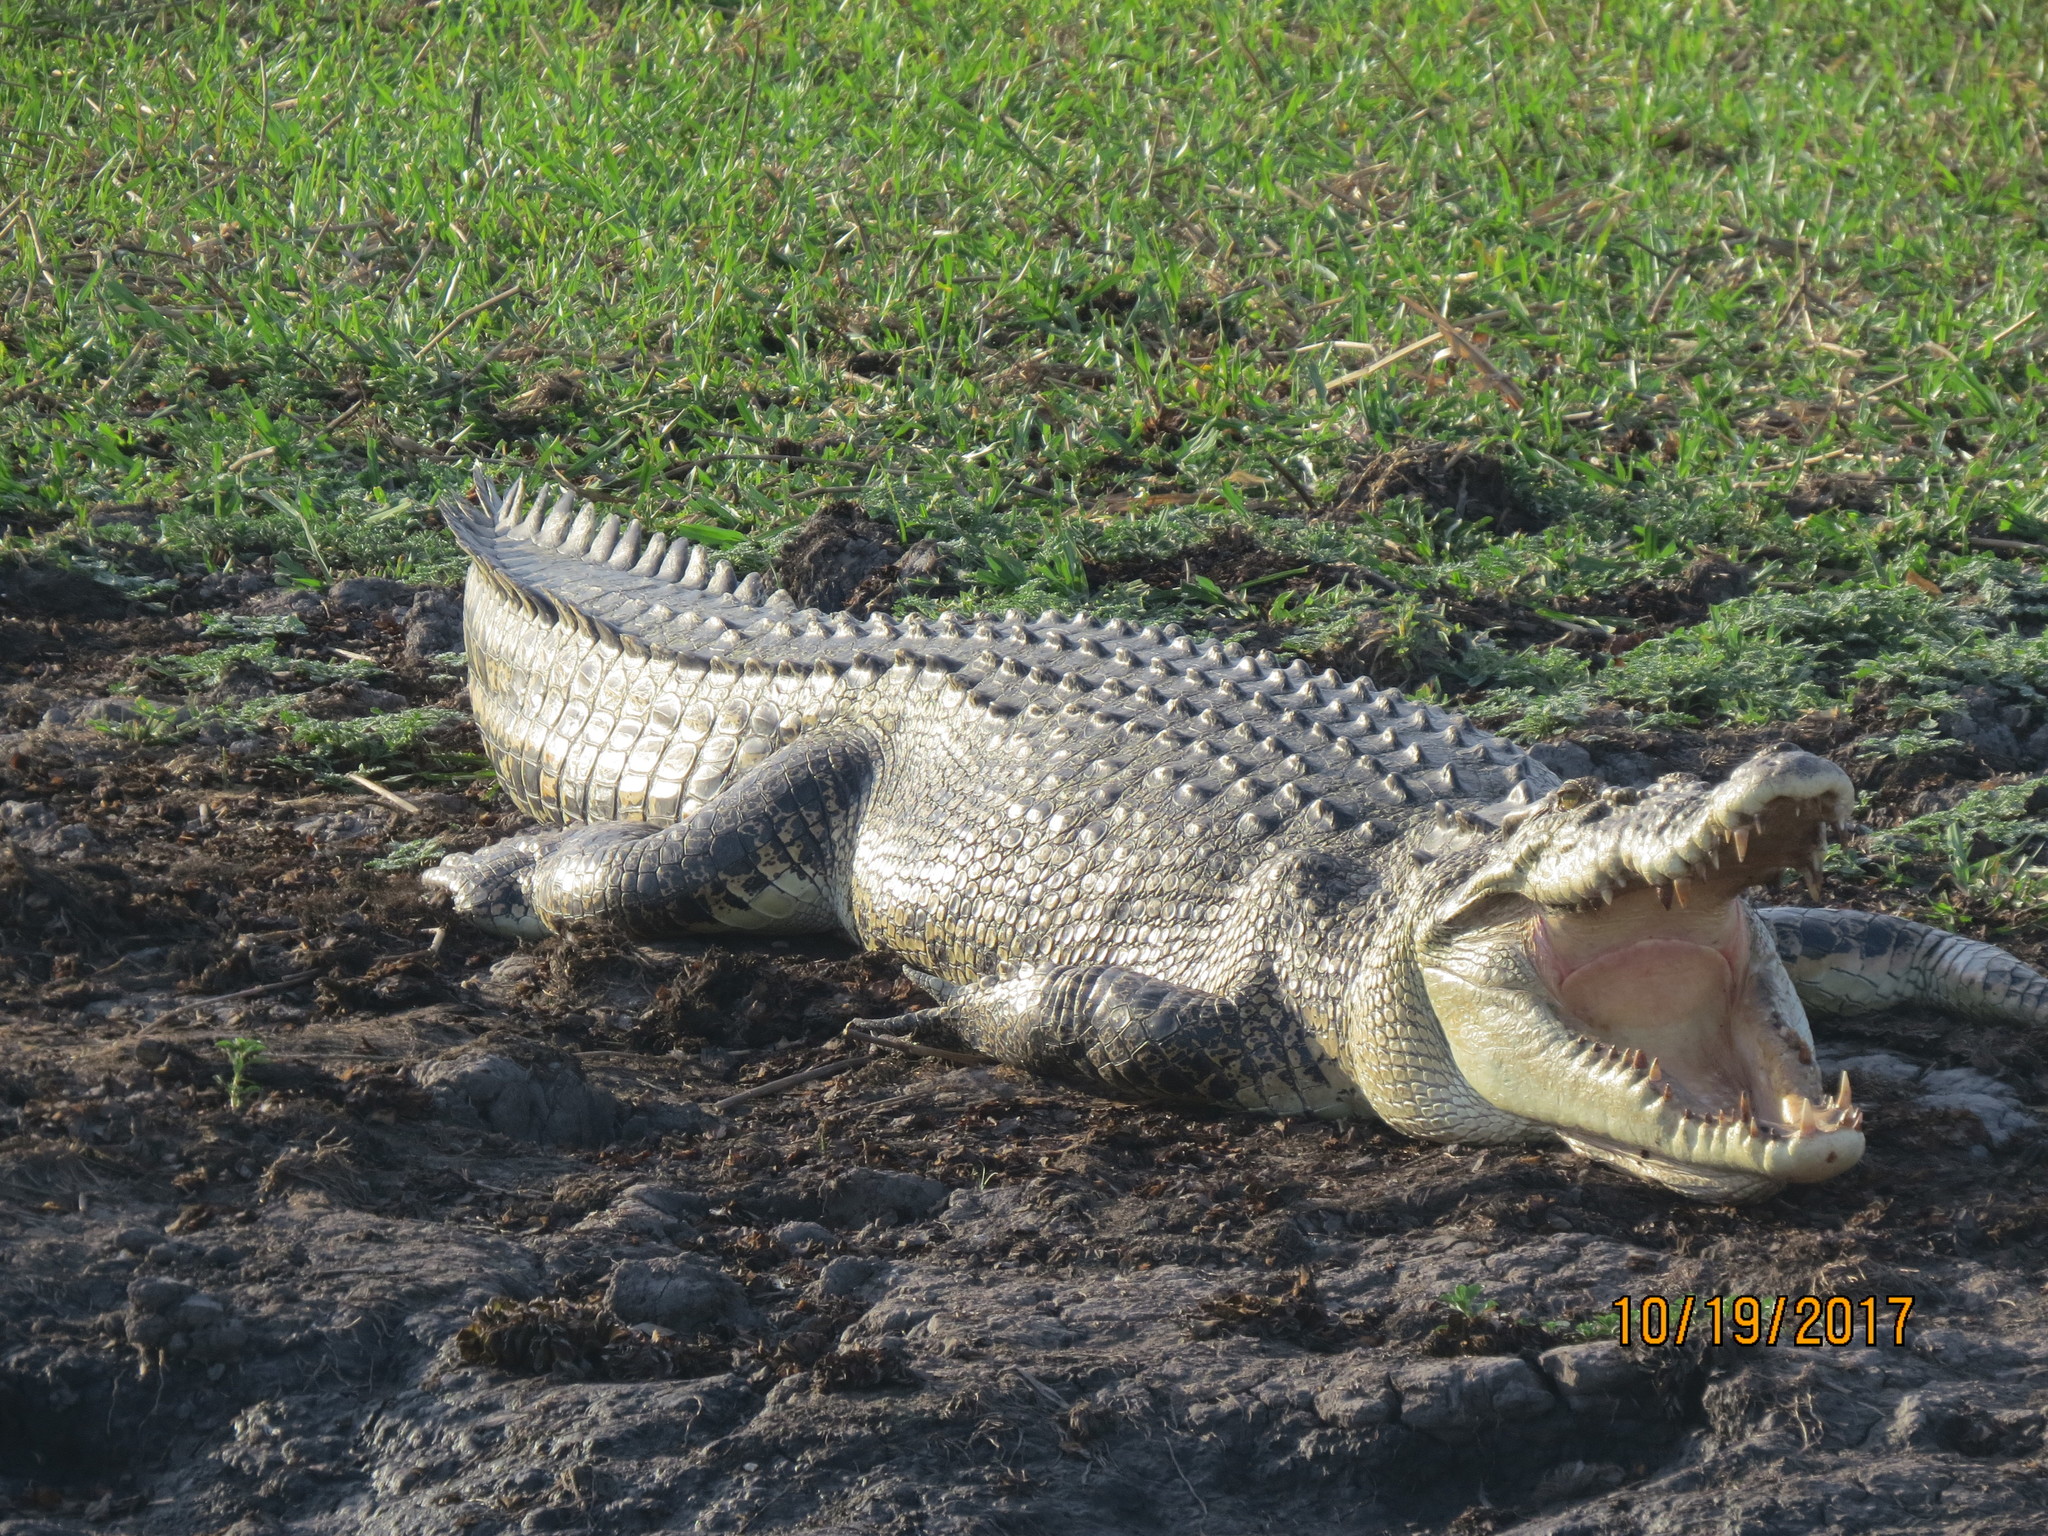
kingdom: Animalia
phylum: Chordata
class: Crocodylia
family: Crocodylidae
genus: Crocodylus
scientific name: Crocodylus porosus
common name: Saltwater crocodile
